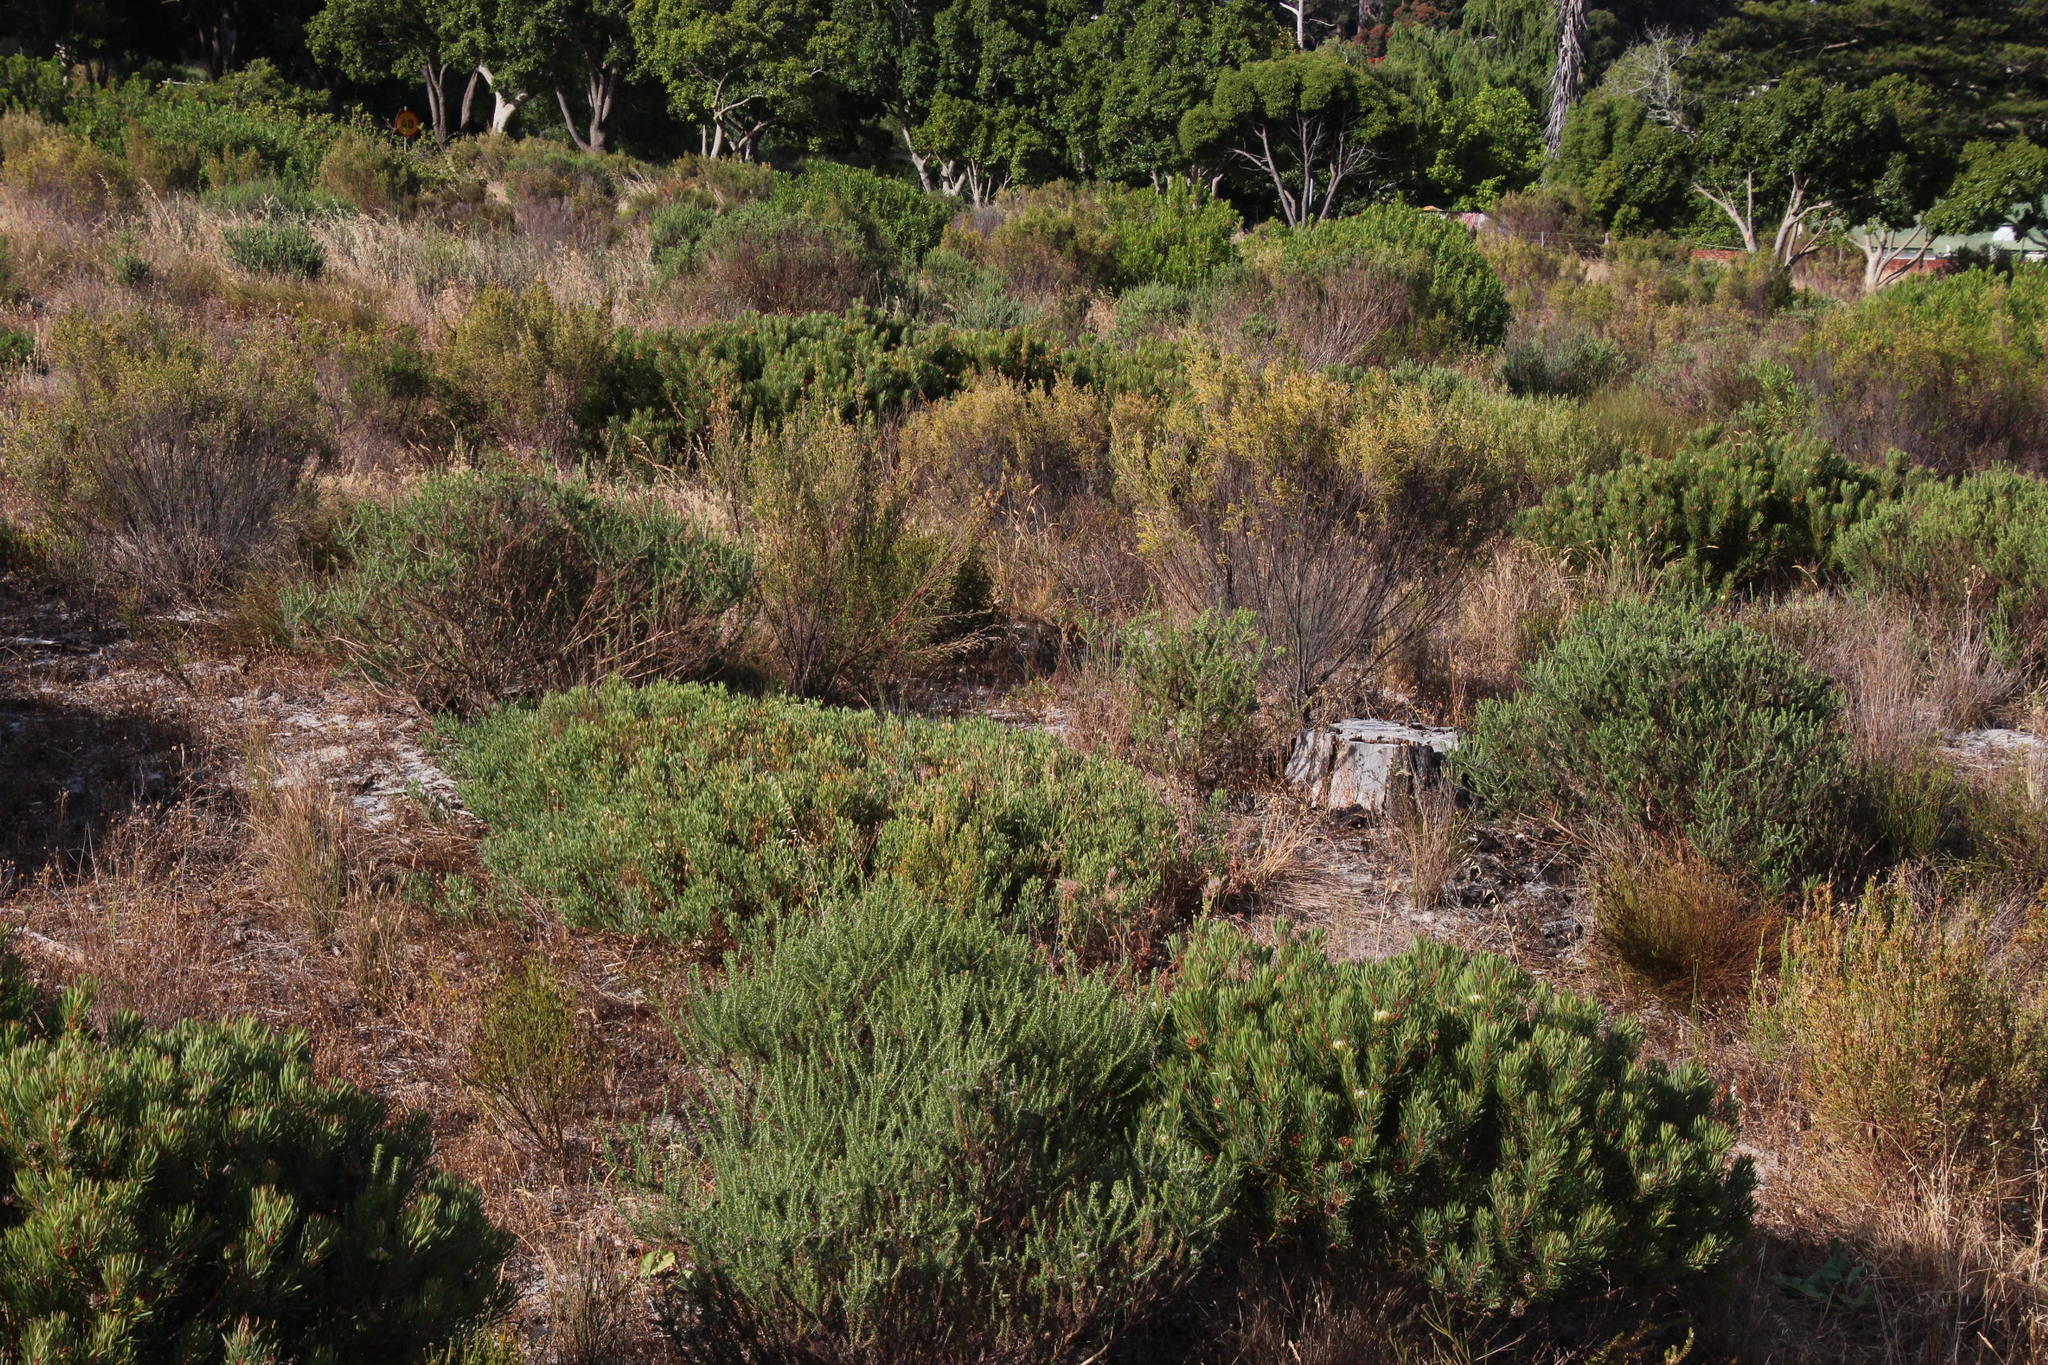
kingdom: Plantae
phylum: Tracheophyta
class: Magnoliopsida
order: Proteales
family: Proteaceae
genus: Protea
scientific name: Protea scolymocephala
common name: Thistle sugarbush
